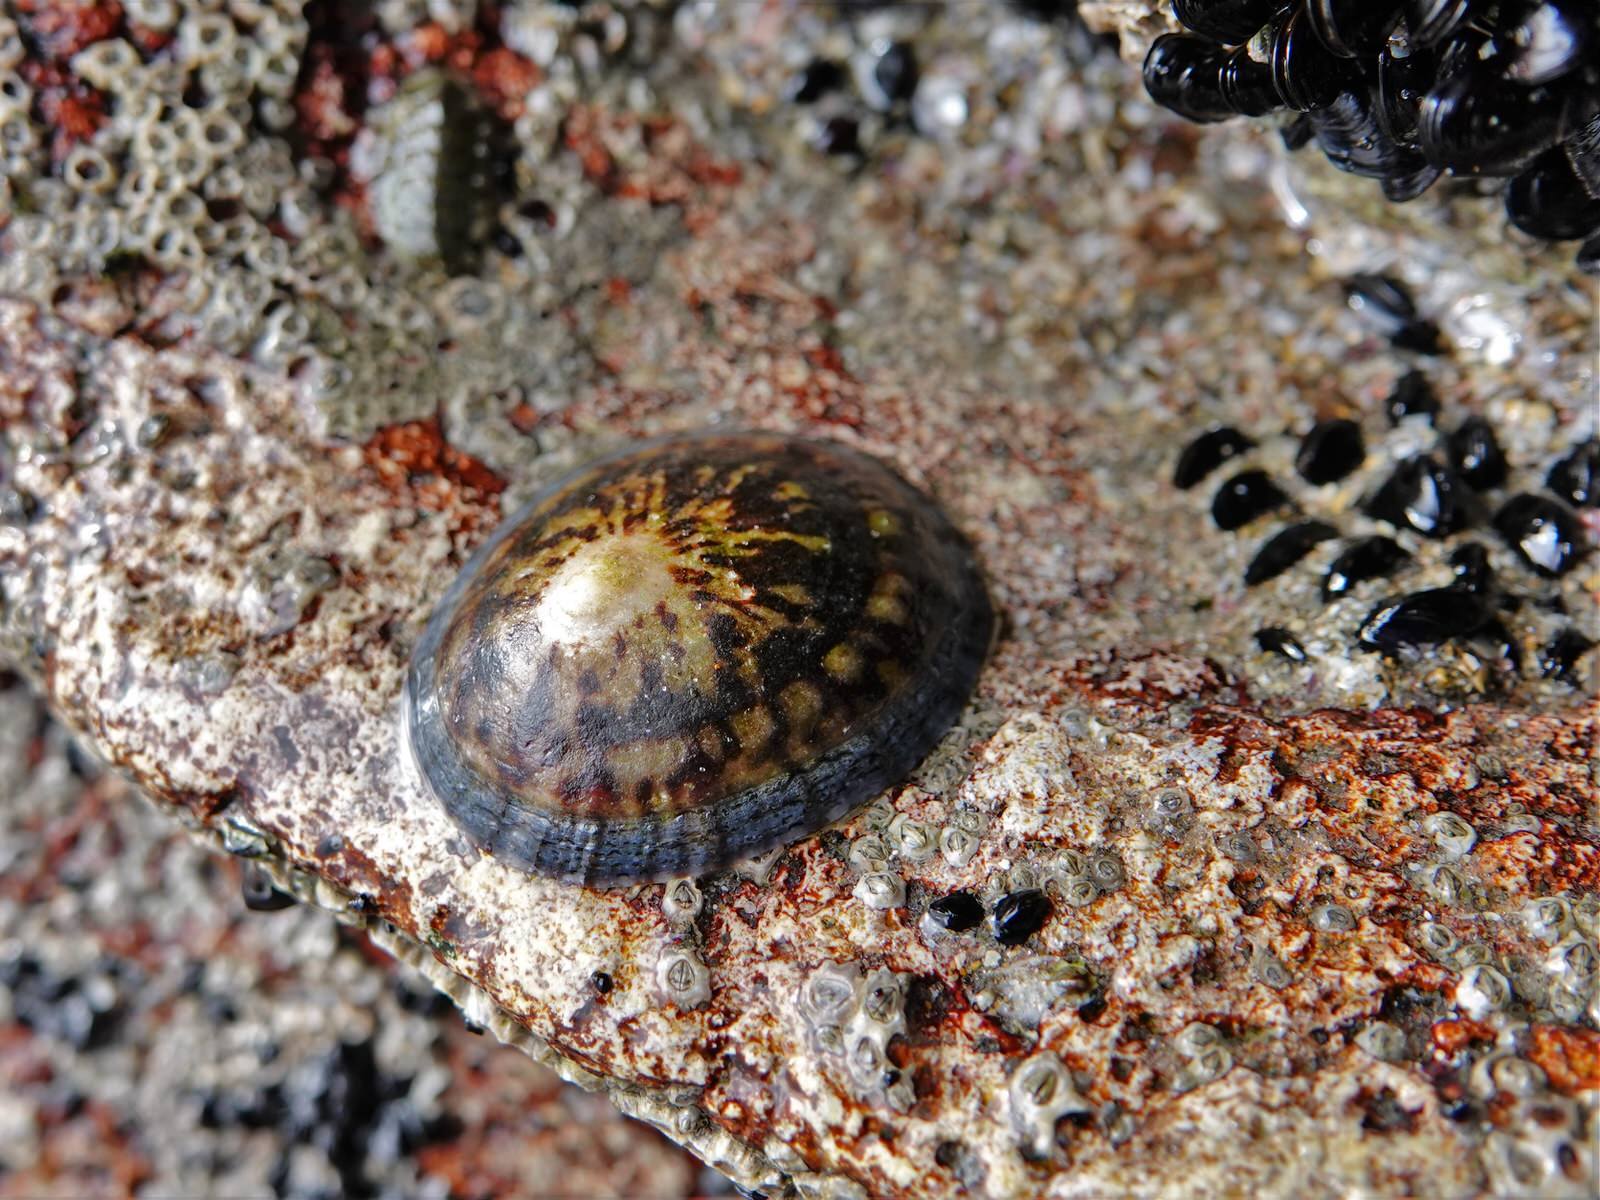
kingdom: Animalia
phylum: Mollusca
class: Gastropoda
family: Nacellidae
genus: Cellana
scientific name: Cellana radians
